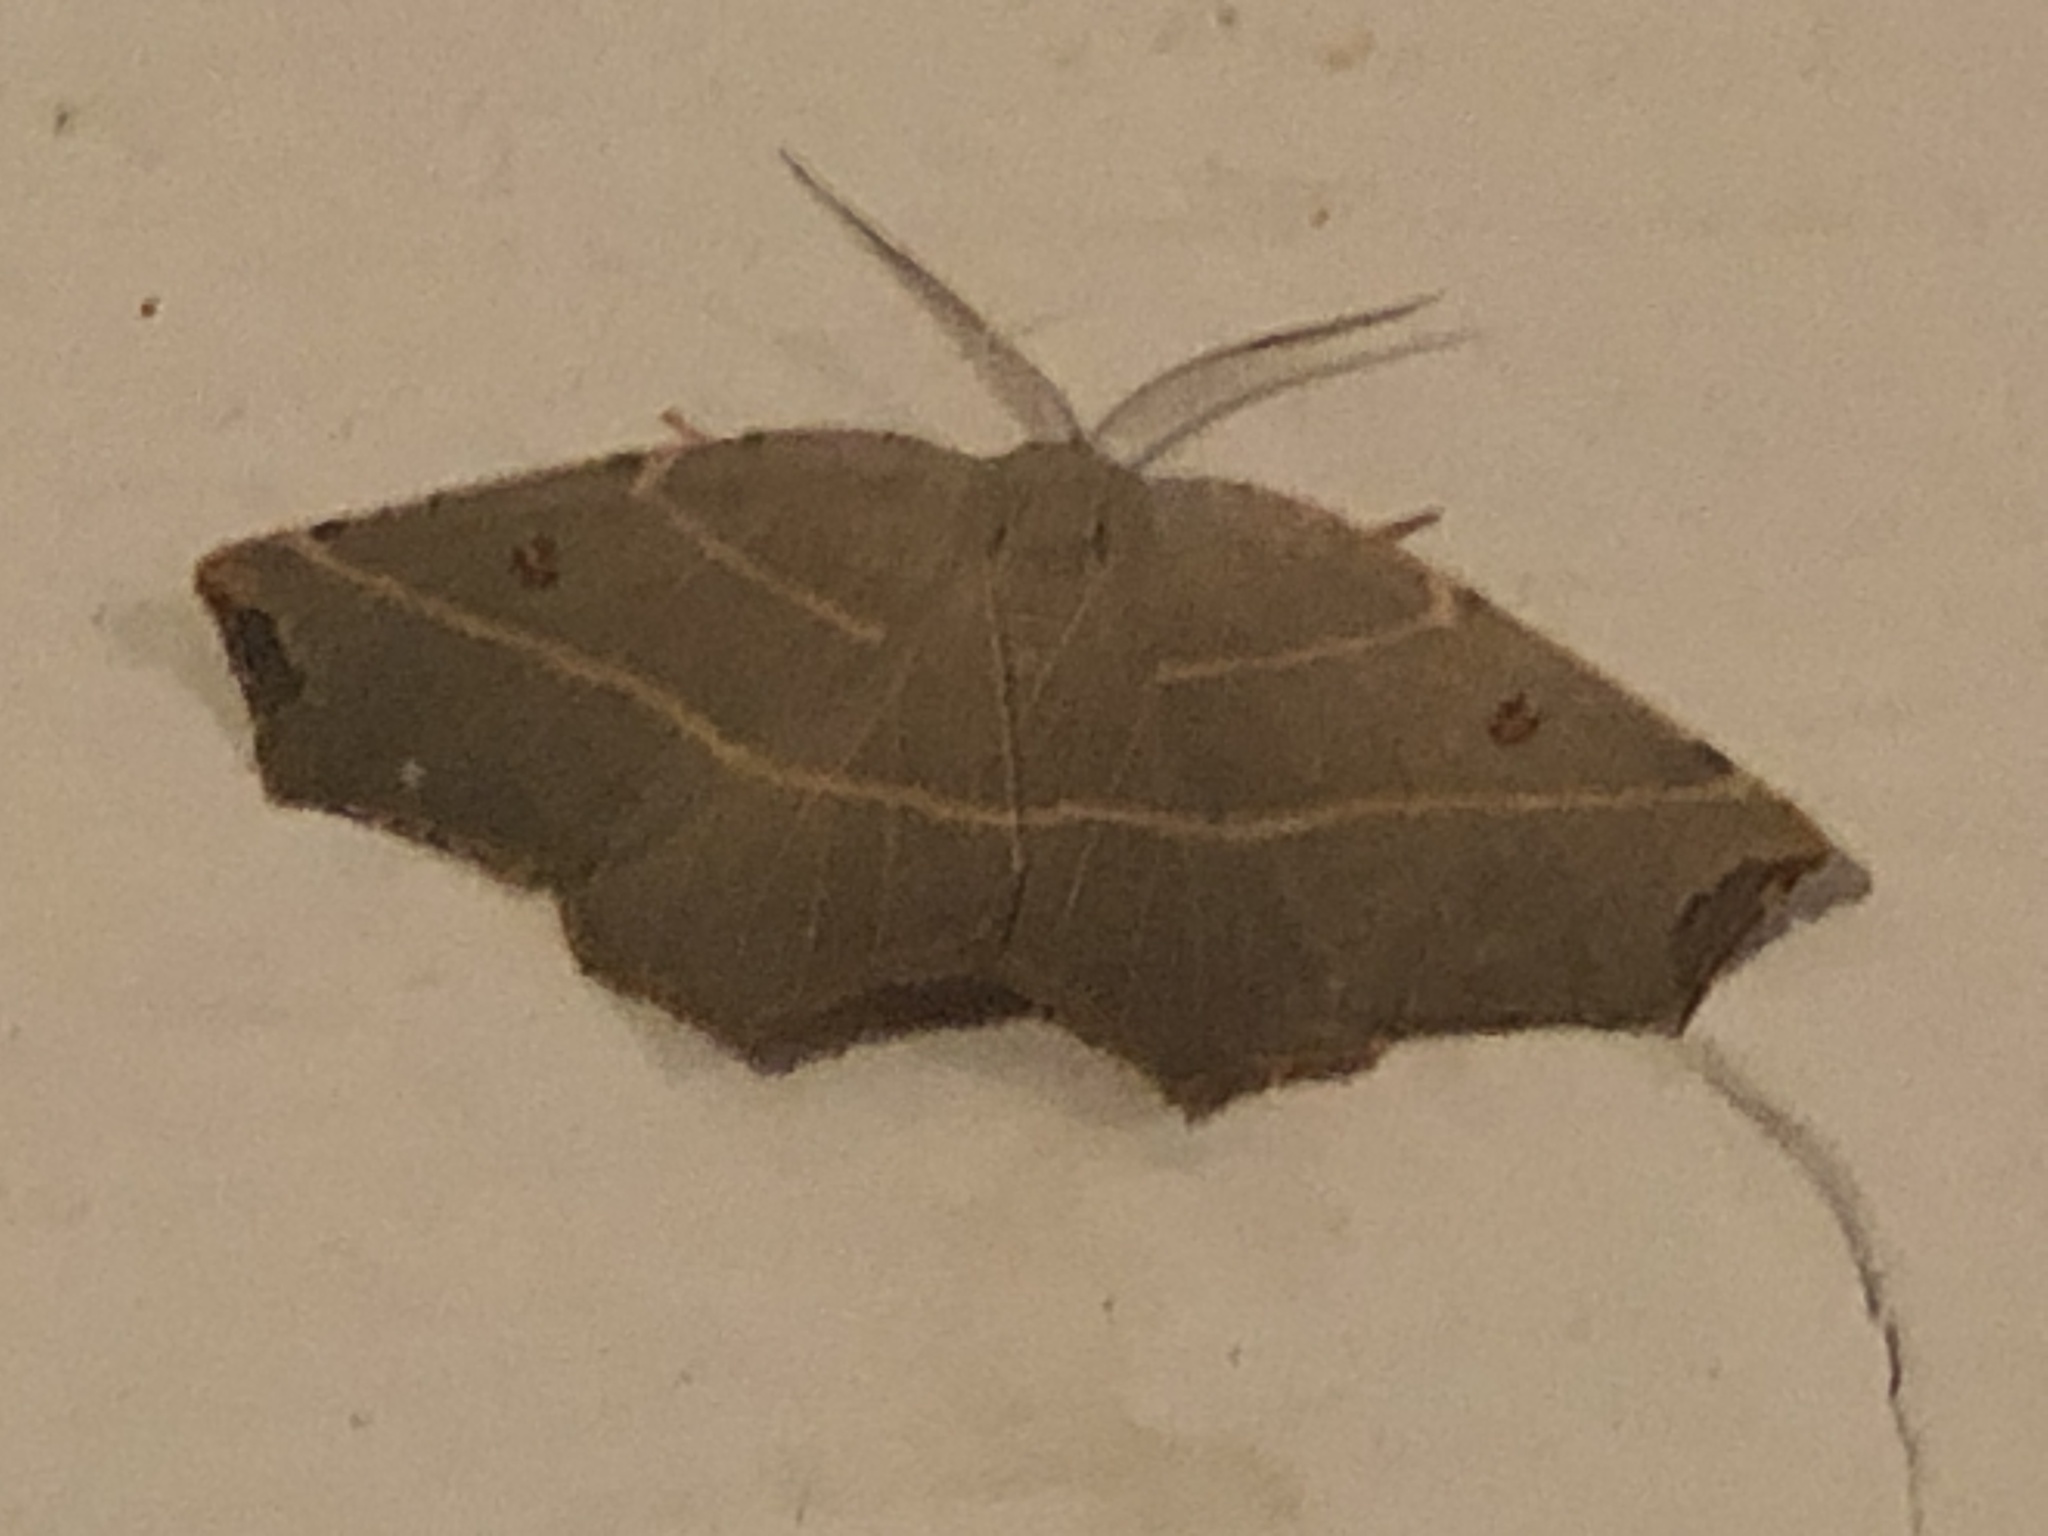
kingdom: Animalia
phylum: Arthropoda
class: Insecta
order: Lepidoptera
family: Geometridae
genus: Metanema
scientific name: Metanema inatomaria
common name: Pale metanema
